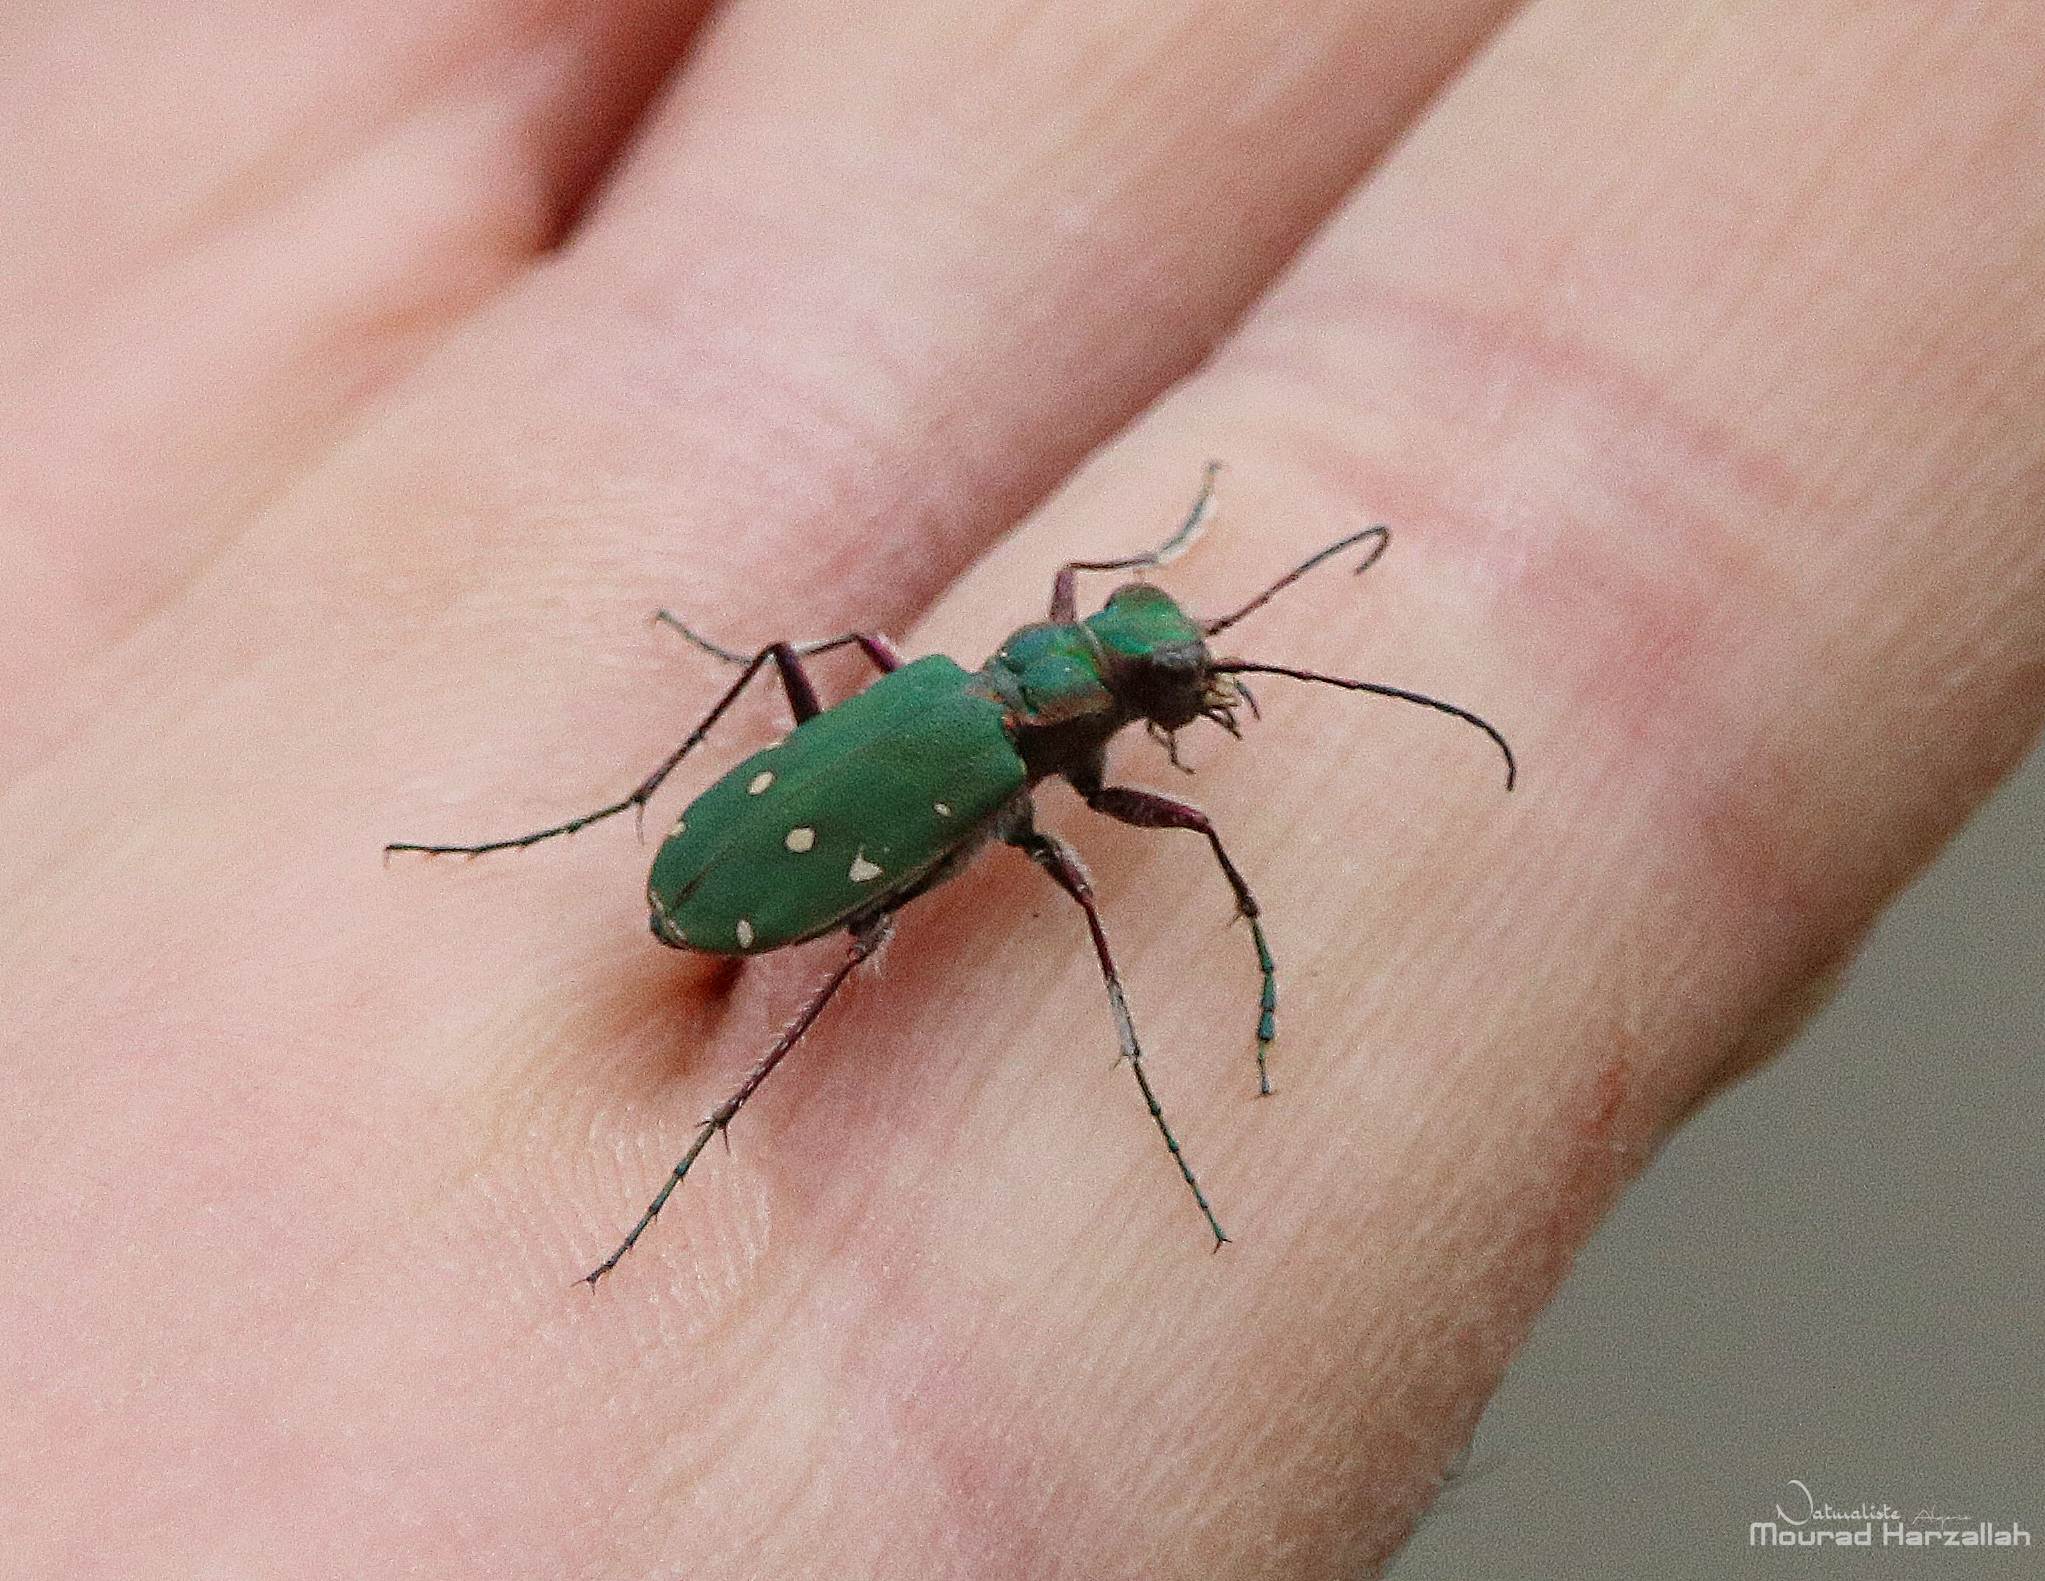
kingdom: Animalia
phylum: Arthropoda
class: Insecta
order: Coleoptera
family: Carabidae
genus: Cicindela
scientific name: Cicindela campestris
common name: Common tiger beetle
